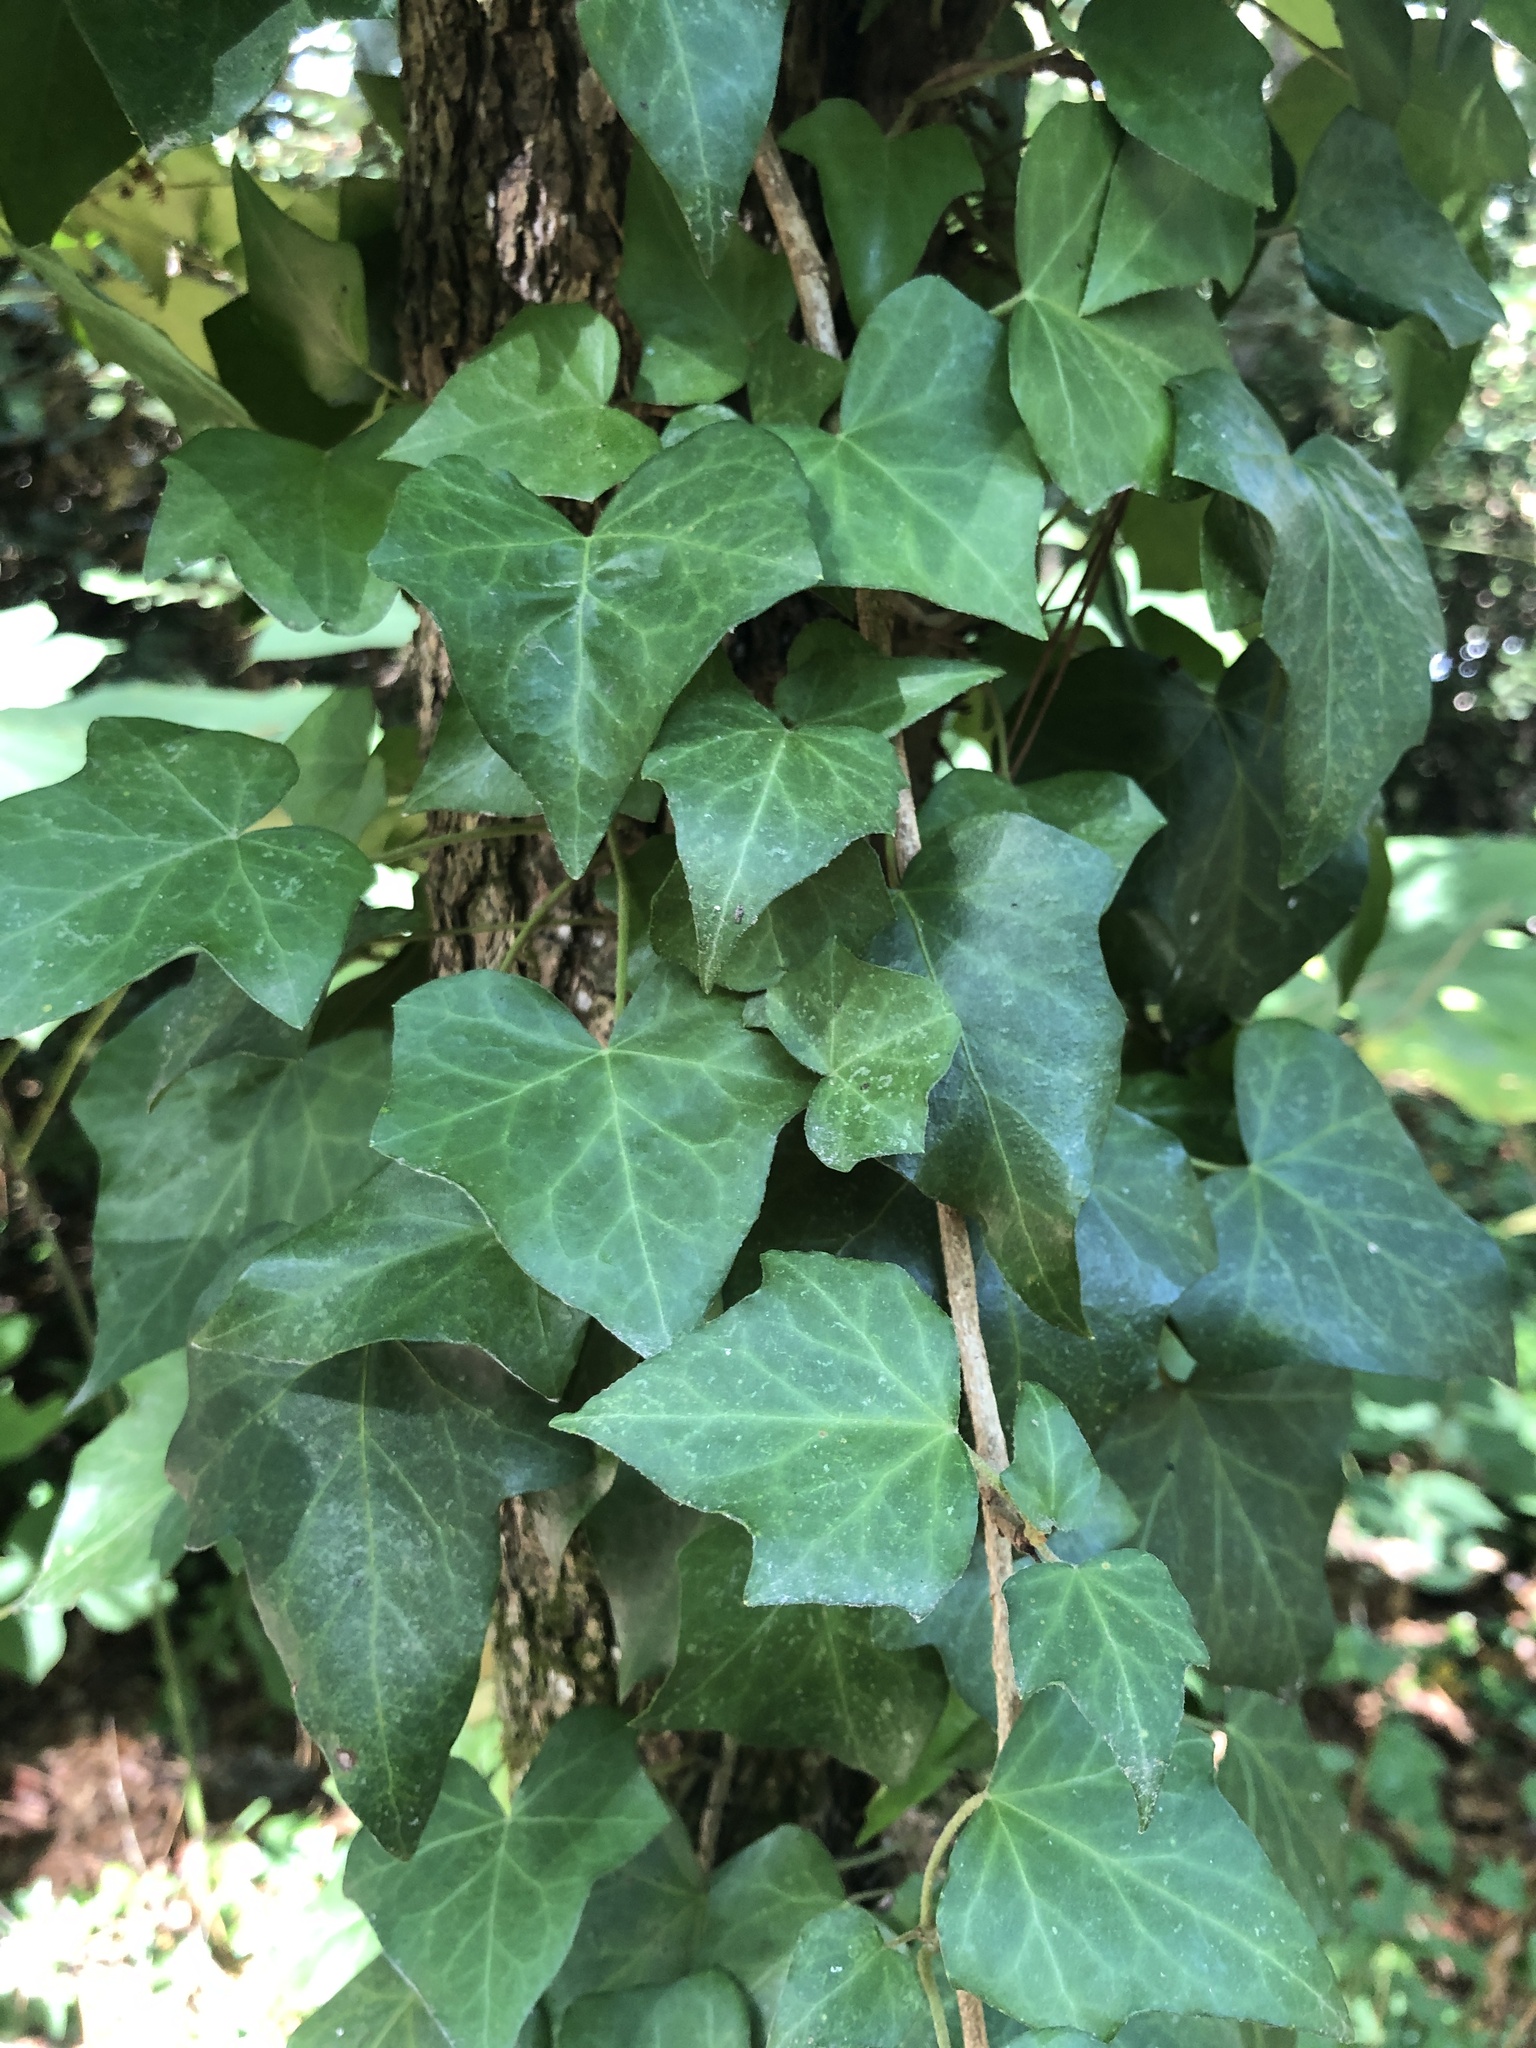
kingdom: Plantae
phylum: Tracheophyta
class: Magnoliopsida
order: Apiales
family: Araliaceae
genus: Hedera
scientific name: Hedera helix
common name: Ivy
